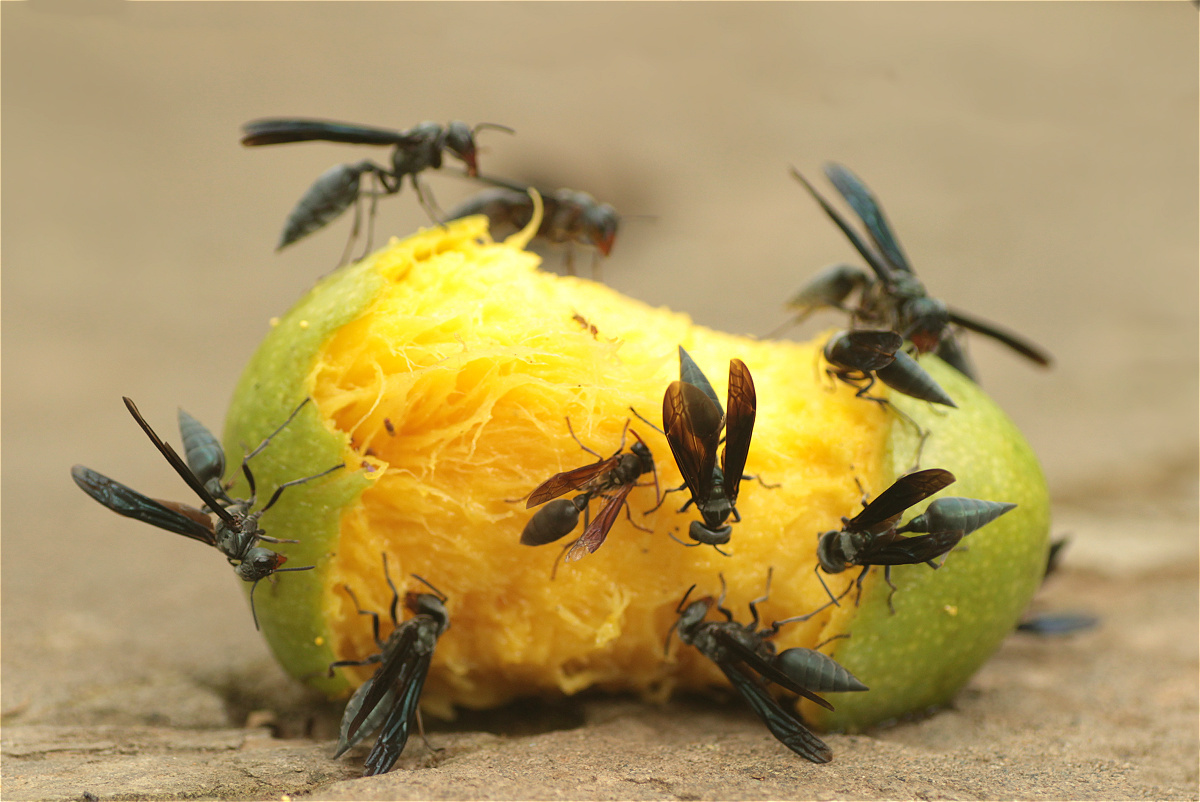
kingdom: Animalia
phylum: Arthropoda
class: Insecta
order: Hymenoptera
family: Vespidae
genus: Synoeca
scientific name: Synoeca septentrionalis
